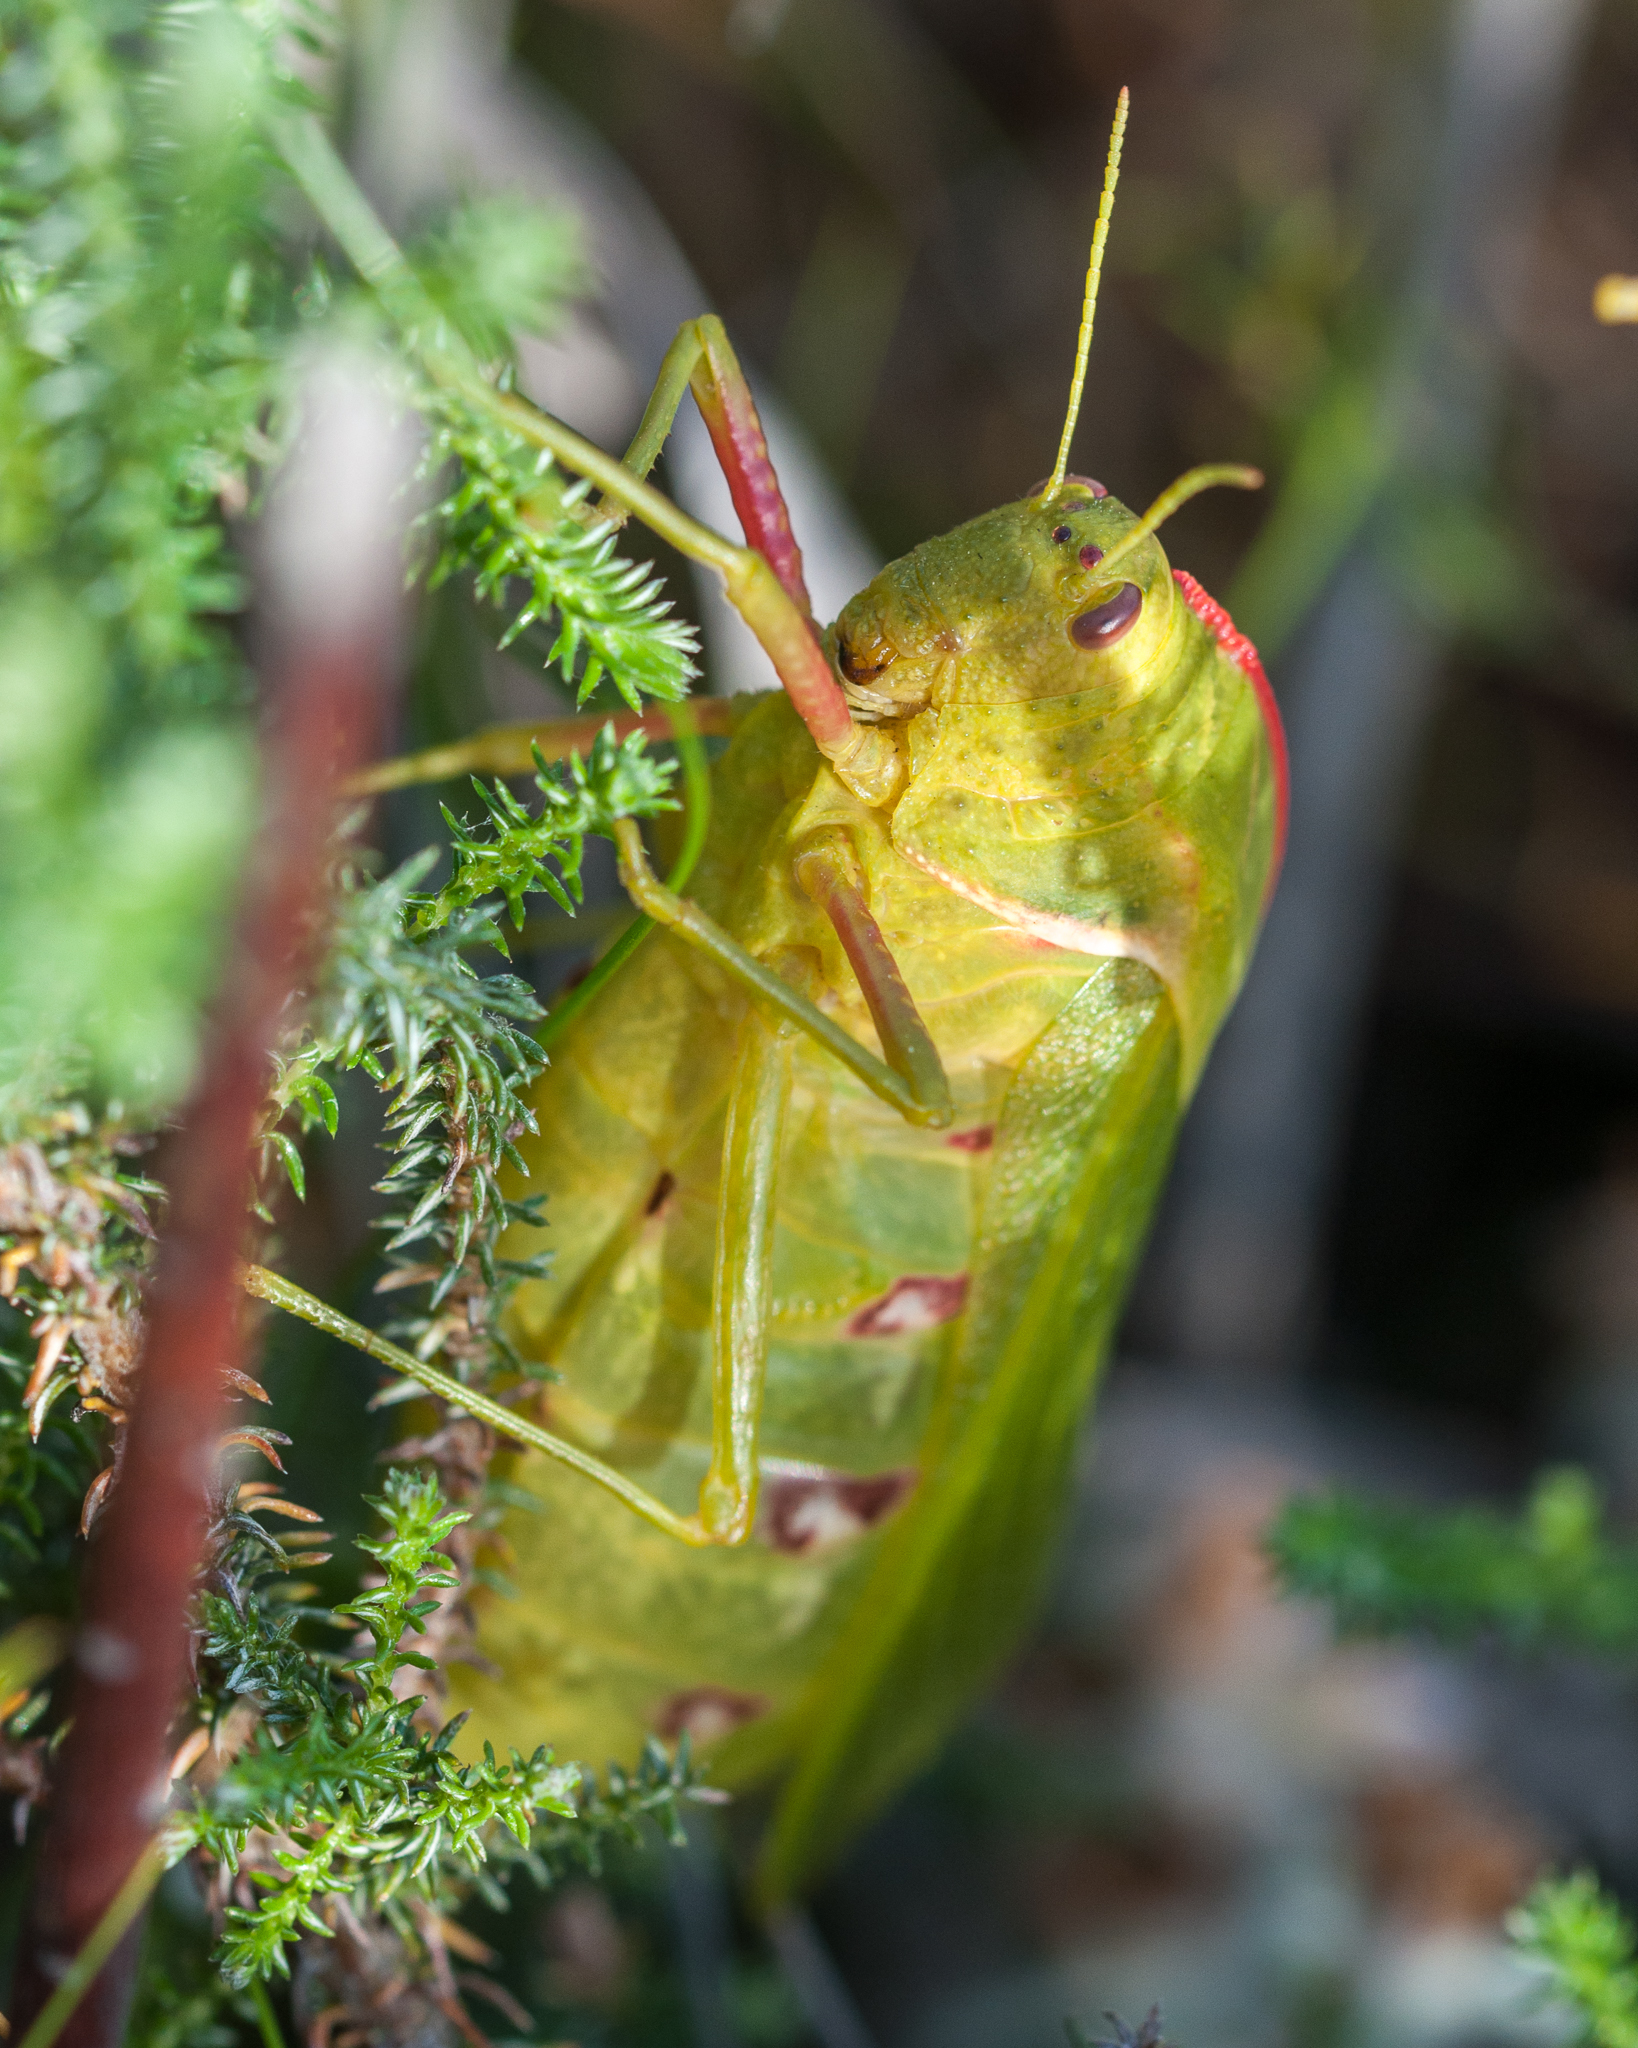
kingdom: Animalia
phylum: Arthropoda
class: Insecta
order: Orthoptera
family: Pneumoridae
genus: Bullacris
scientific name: Bullacris discolor
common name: Bladder grasshopper
